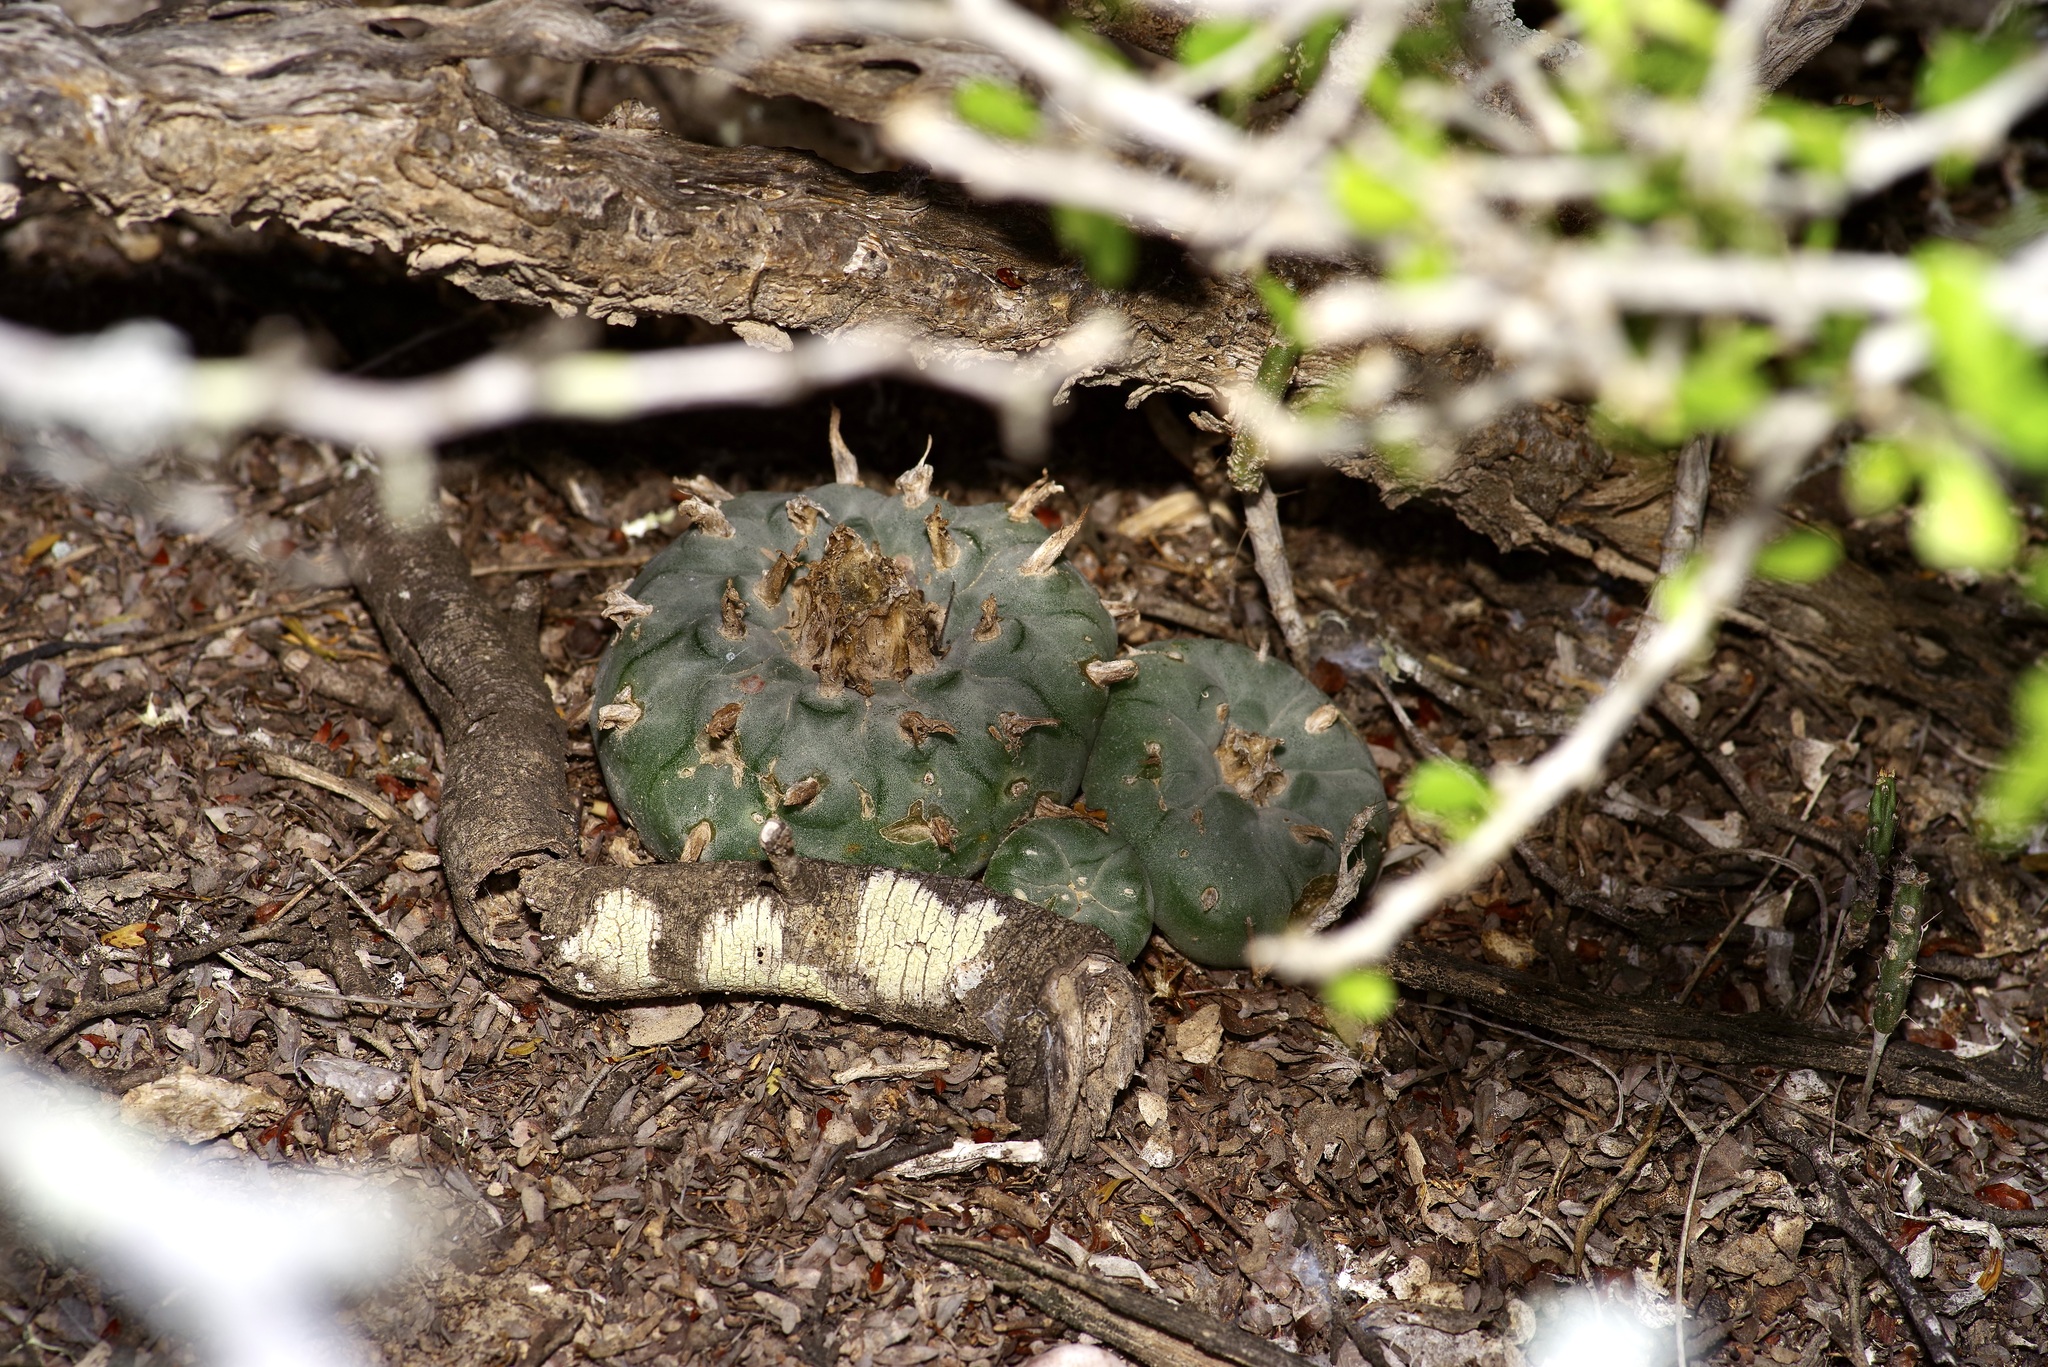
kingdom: Plantae
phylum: Tracheophyta
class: Magnoliopsida
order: Caryophyllales
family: Cactaceae
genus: Lophophora
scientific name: Lophophora williamsii
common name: Indian-dope
